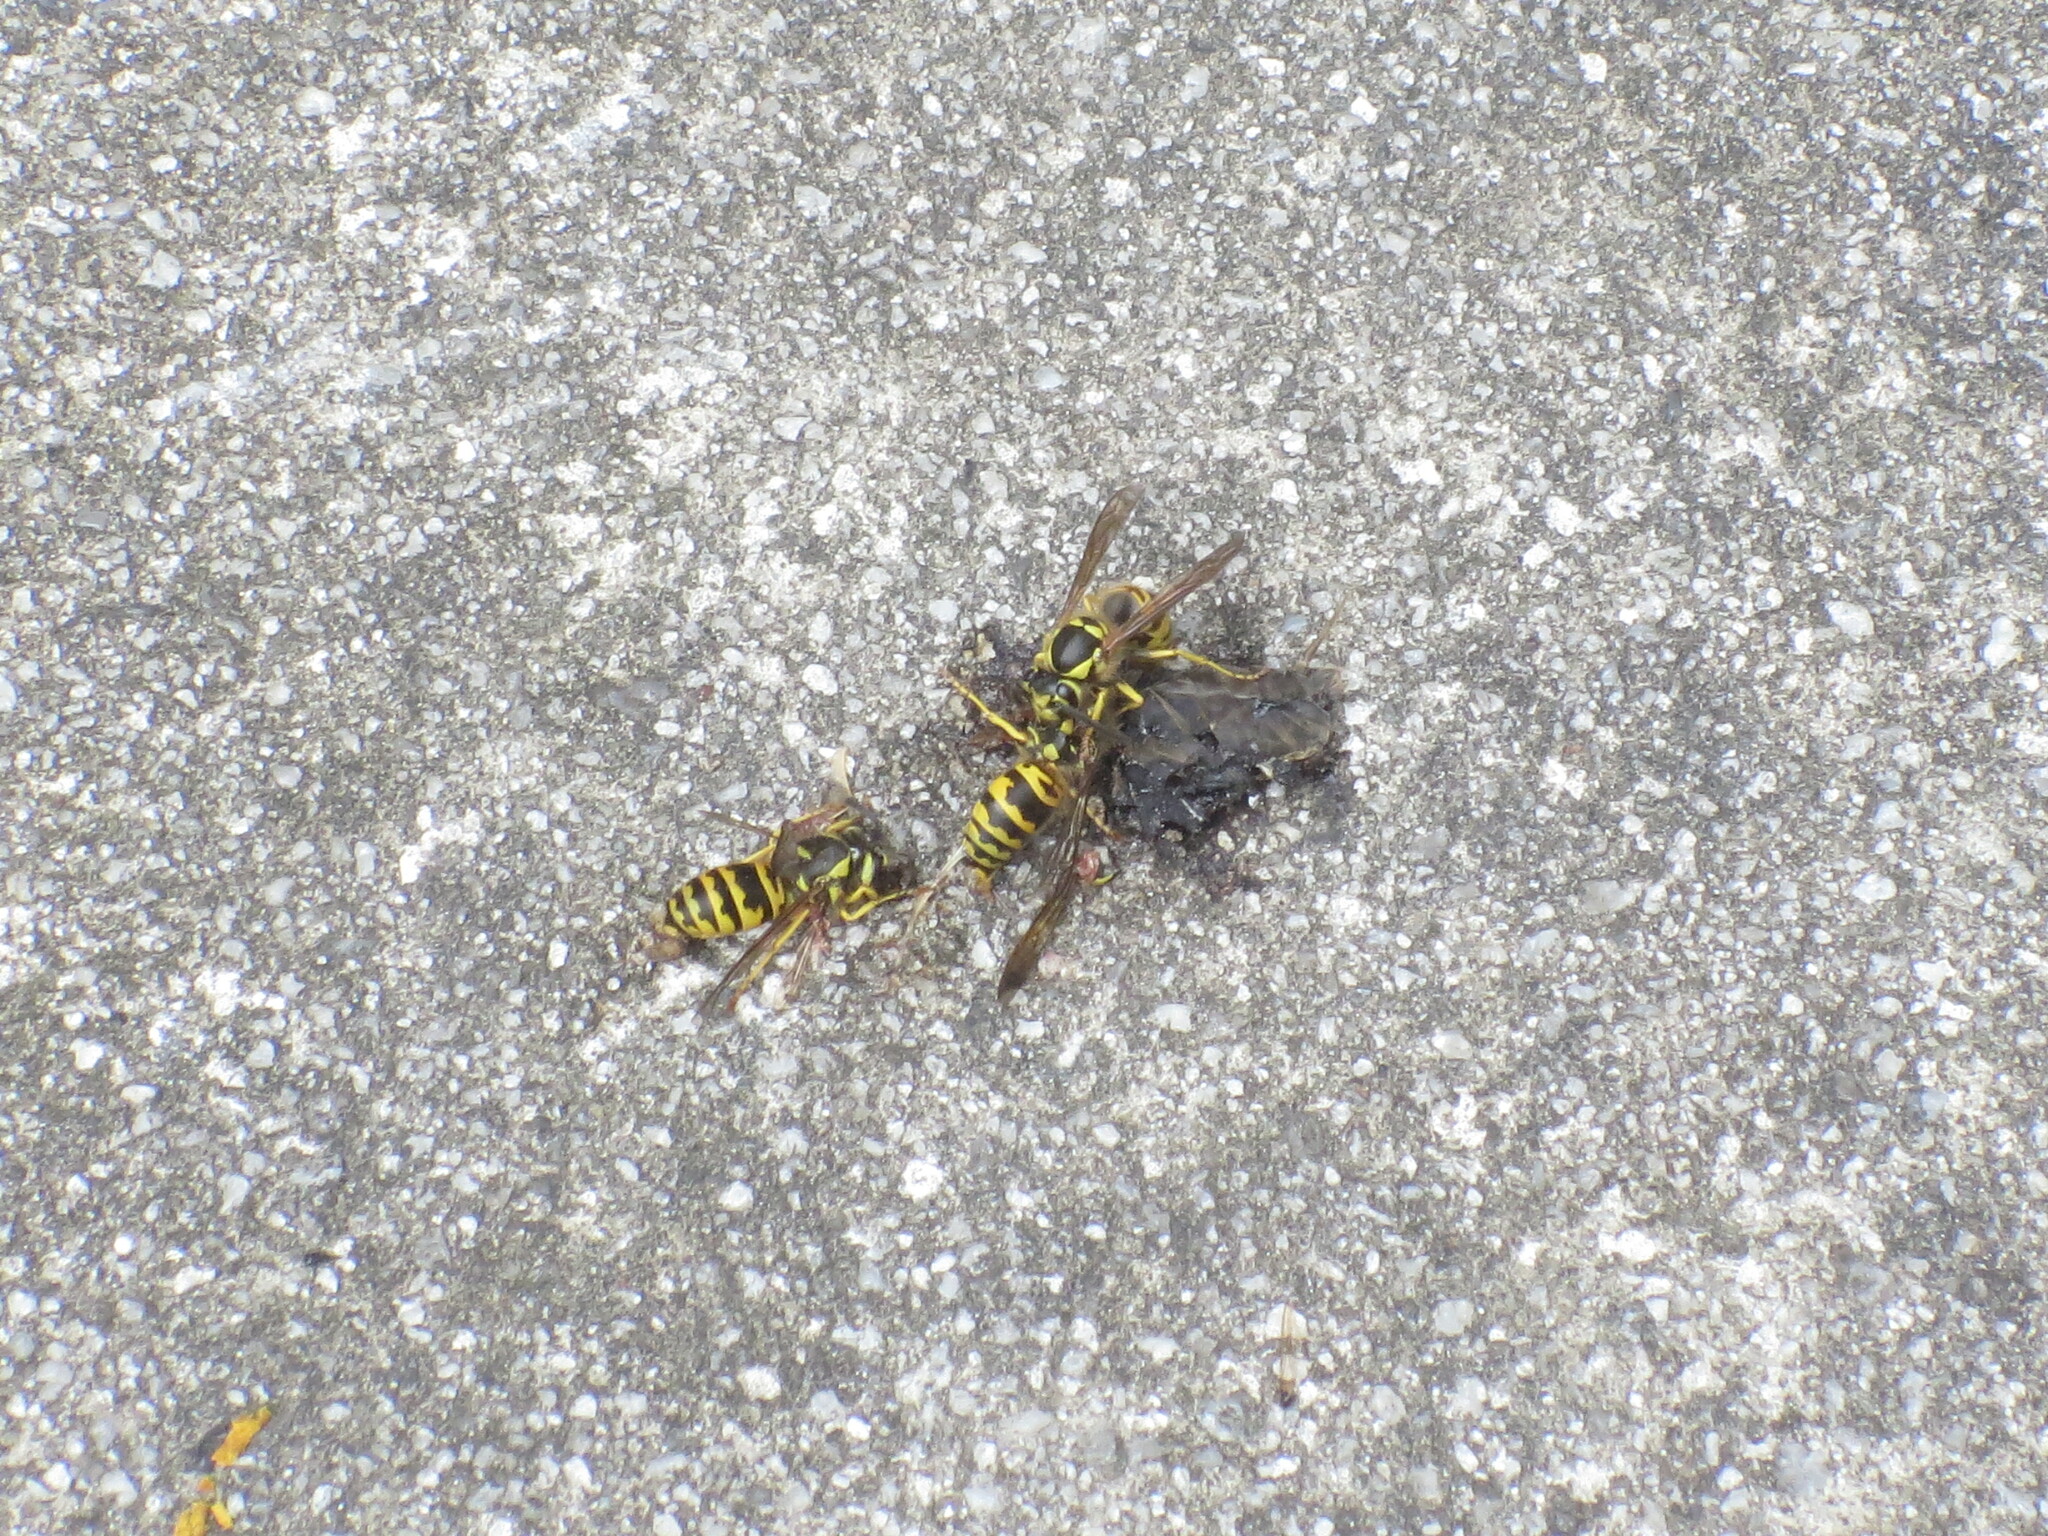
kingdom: Animalia
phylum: Arthropoda
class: Insecta
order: Hymenoptera
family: Vespidae
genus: Vespula
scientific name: Vespula maculifrons
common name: Eastern yellowjacket
